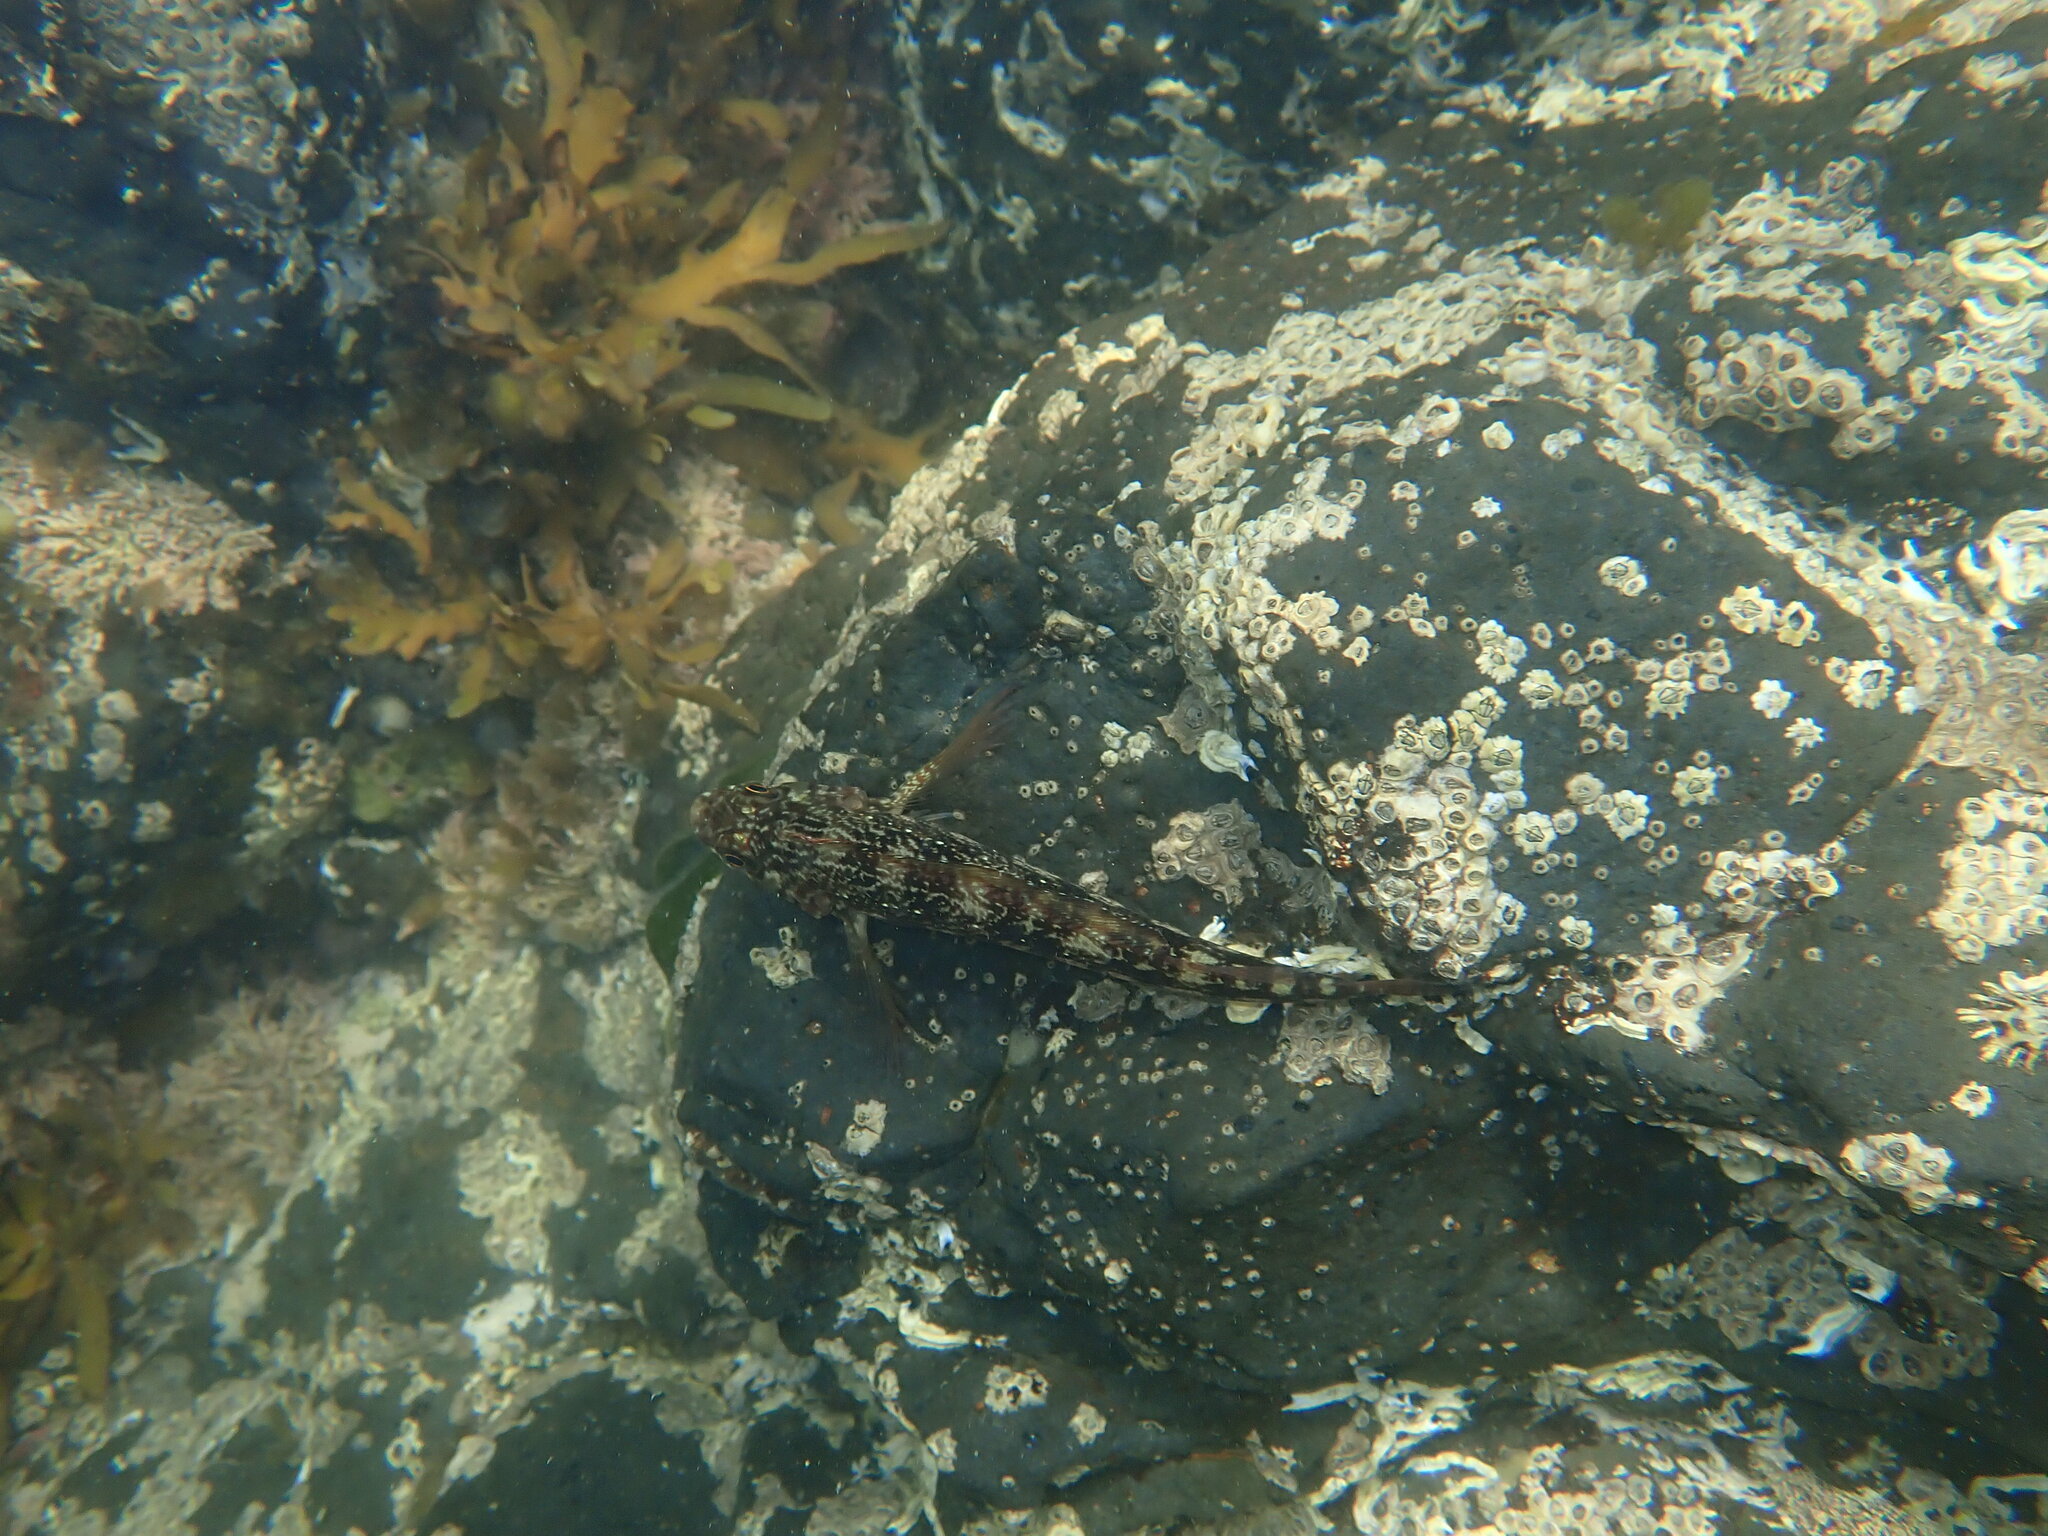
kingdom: Animalia
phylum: Chordata
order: Perciformes
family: Tripterygiidae
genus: Forsterygion
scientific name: Forsterygion varium
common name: Variable triplefin
